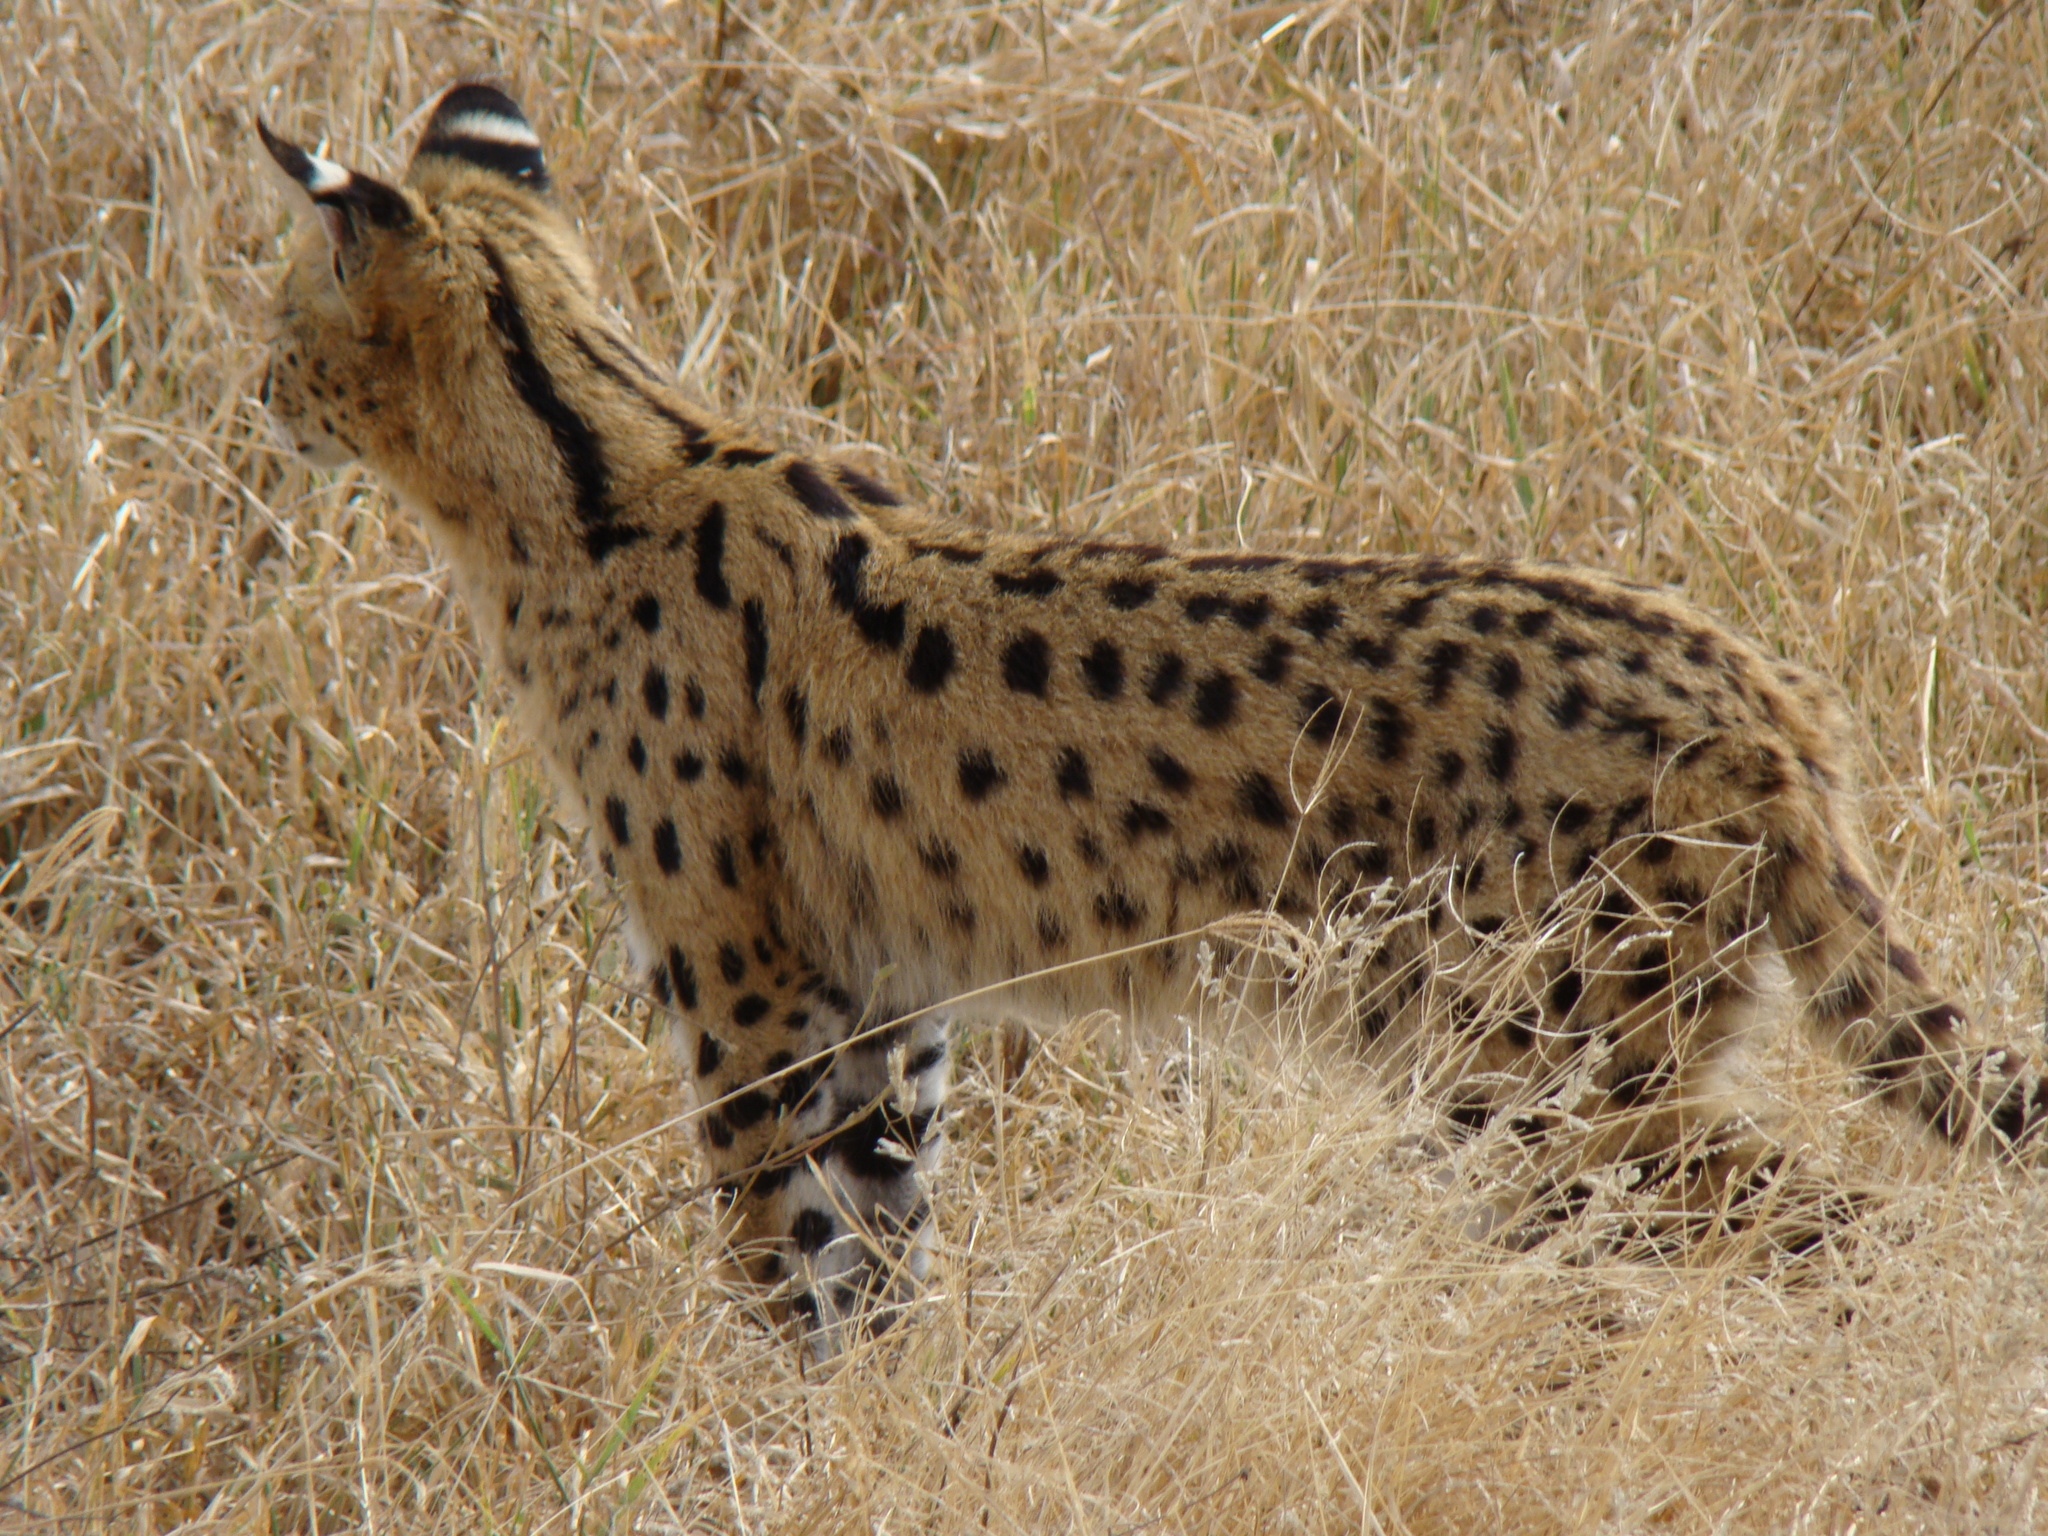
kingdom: Animalia
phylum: Chordata
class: Mammalia
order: Carnivora
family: Felidae
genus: Leptailurus
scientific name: Leptailurus serval
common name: Serval
